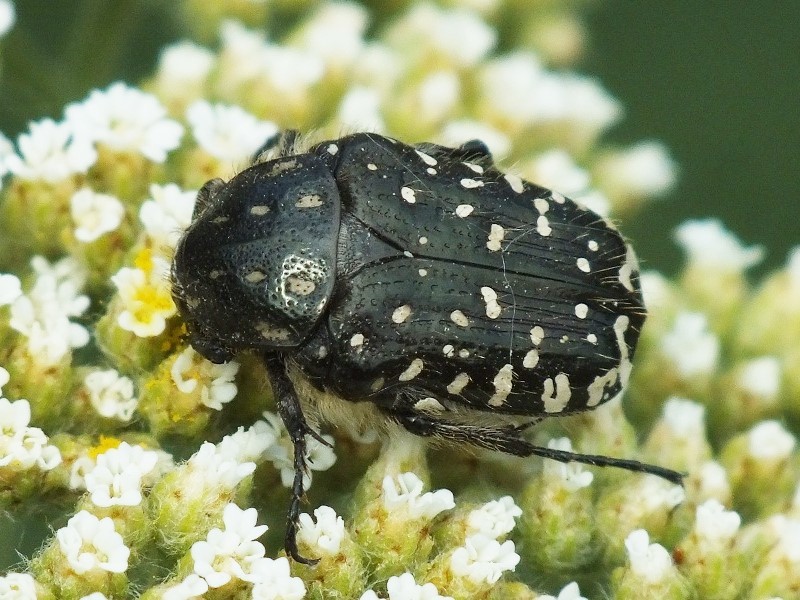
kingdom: Animalia
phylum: Arthropoda
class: Insecta
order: Coleoptera
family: Scarabaeidae
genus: Oxythyrea
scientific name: Oxythyrea funesta
